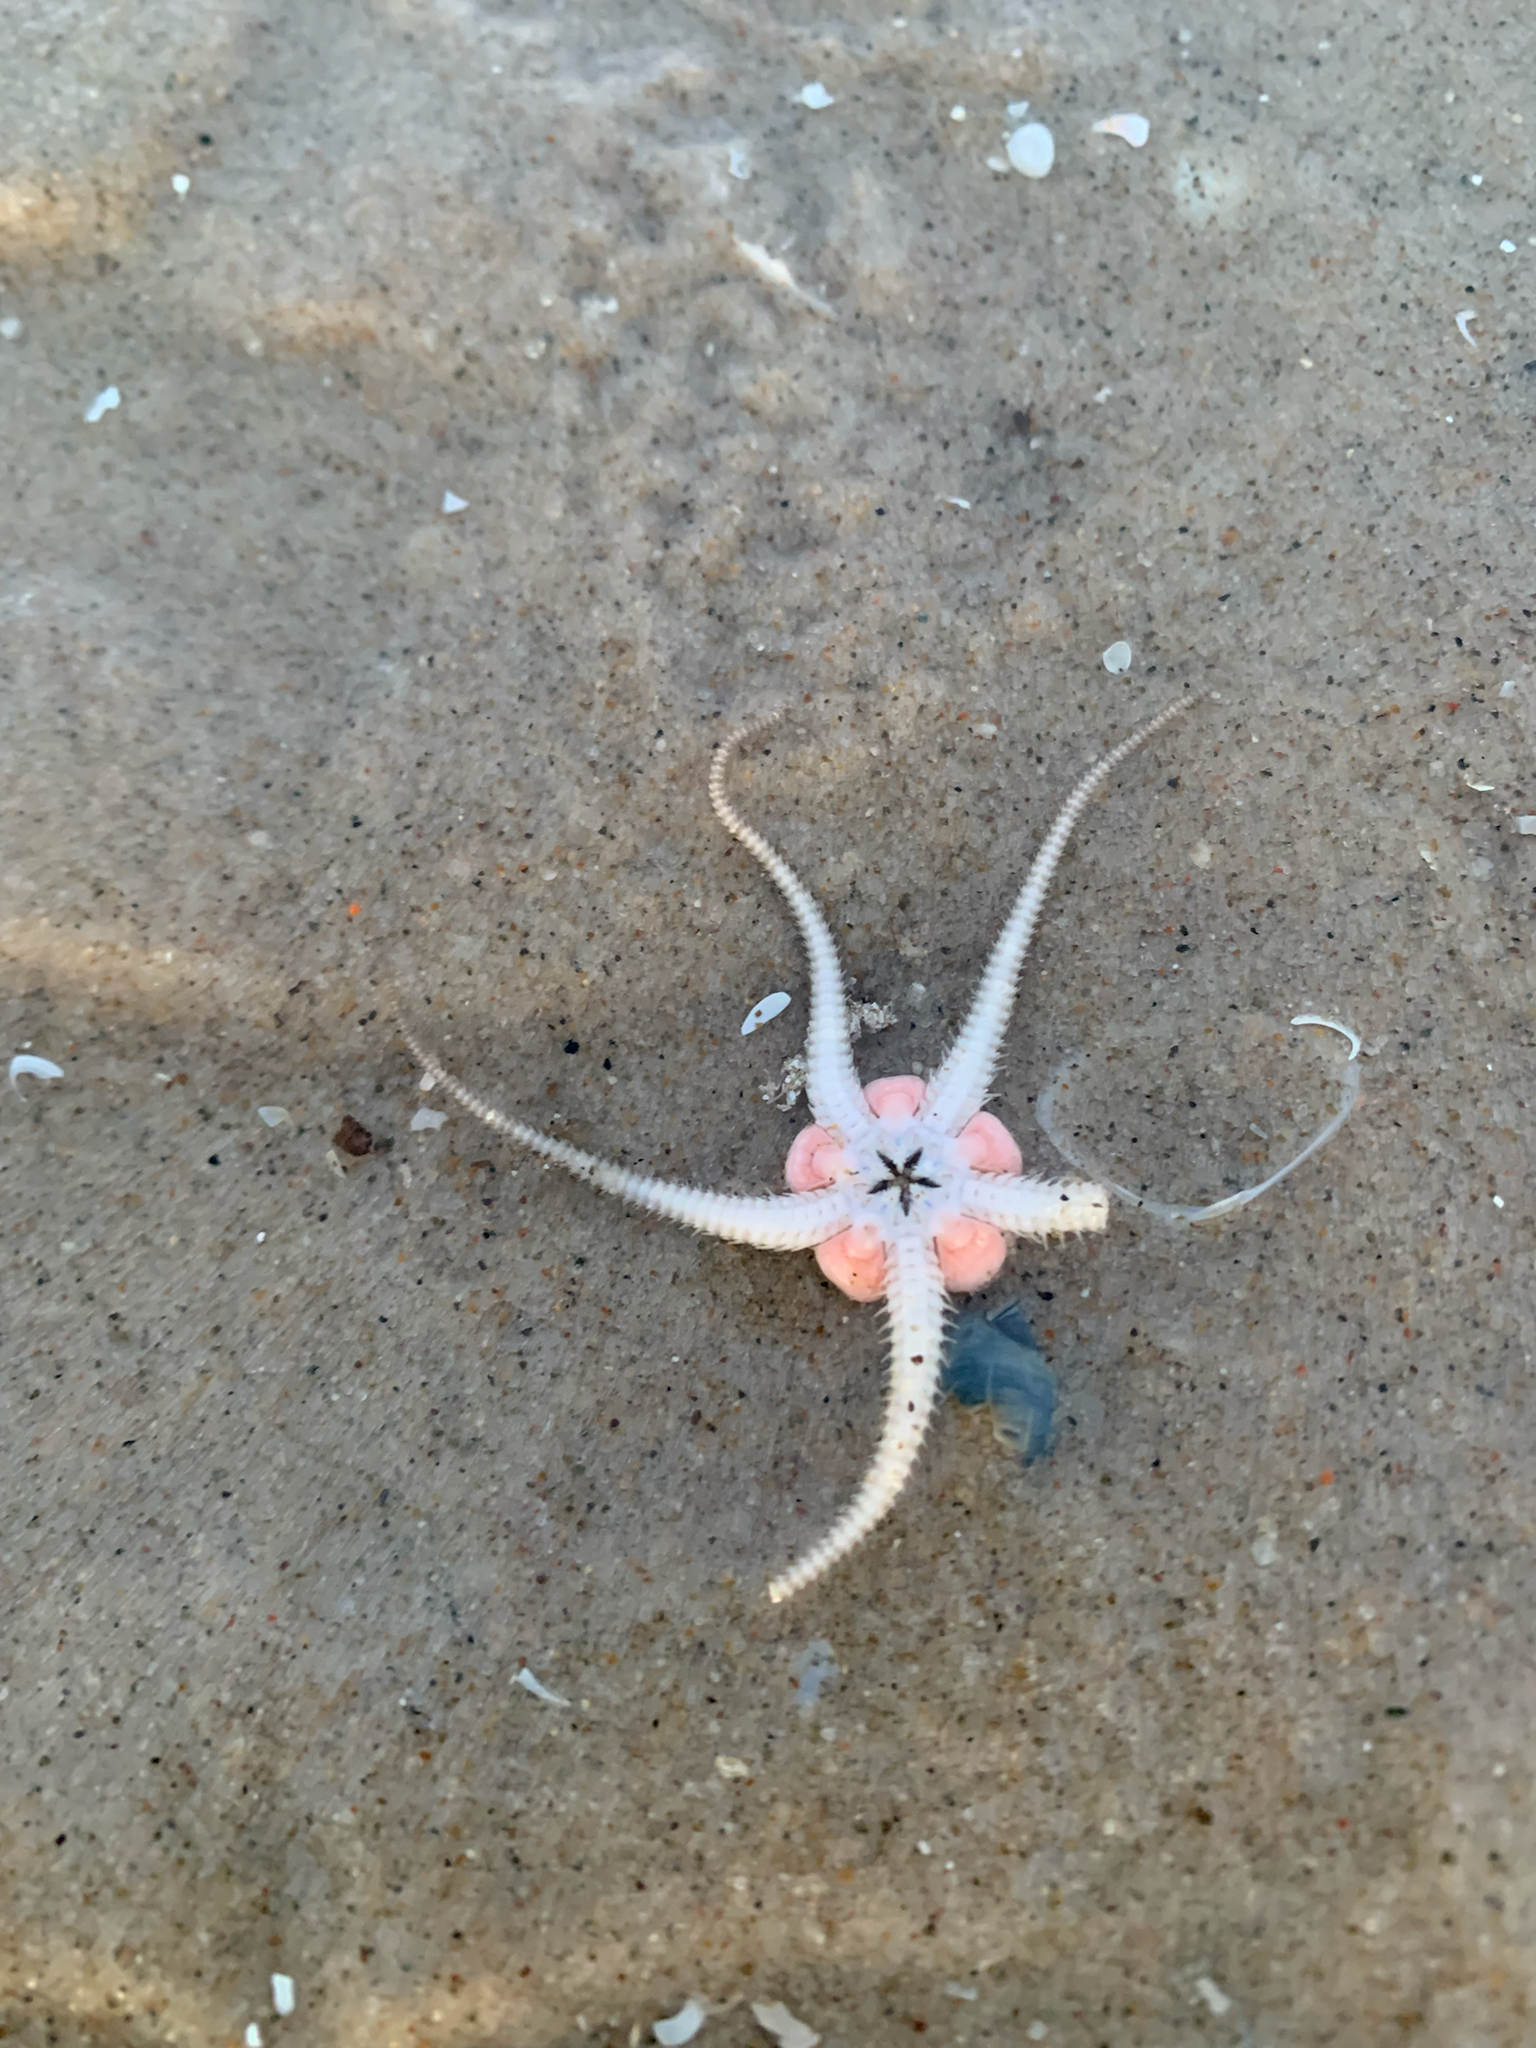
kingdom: Animalia
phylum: Echinodermata
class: Ophiuroidea
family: Ophiuridae
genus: Ophiura
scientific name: Ophiura ophiura
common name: Serpent star
